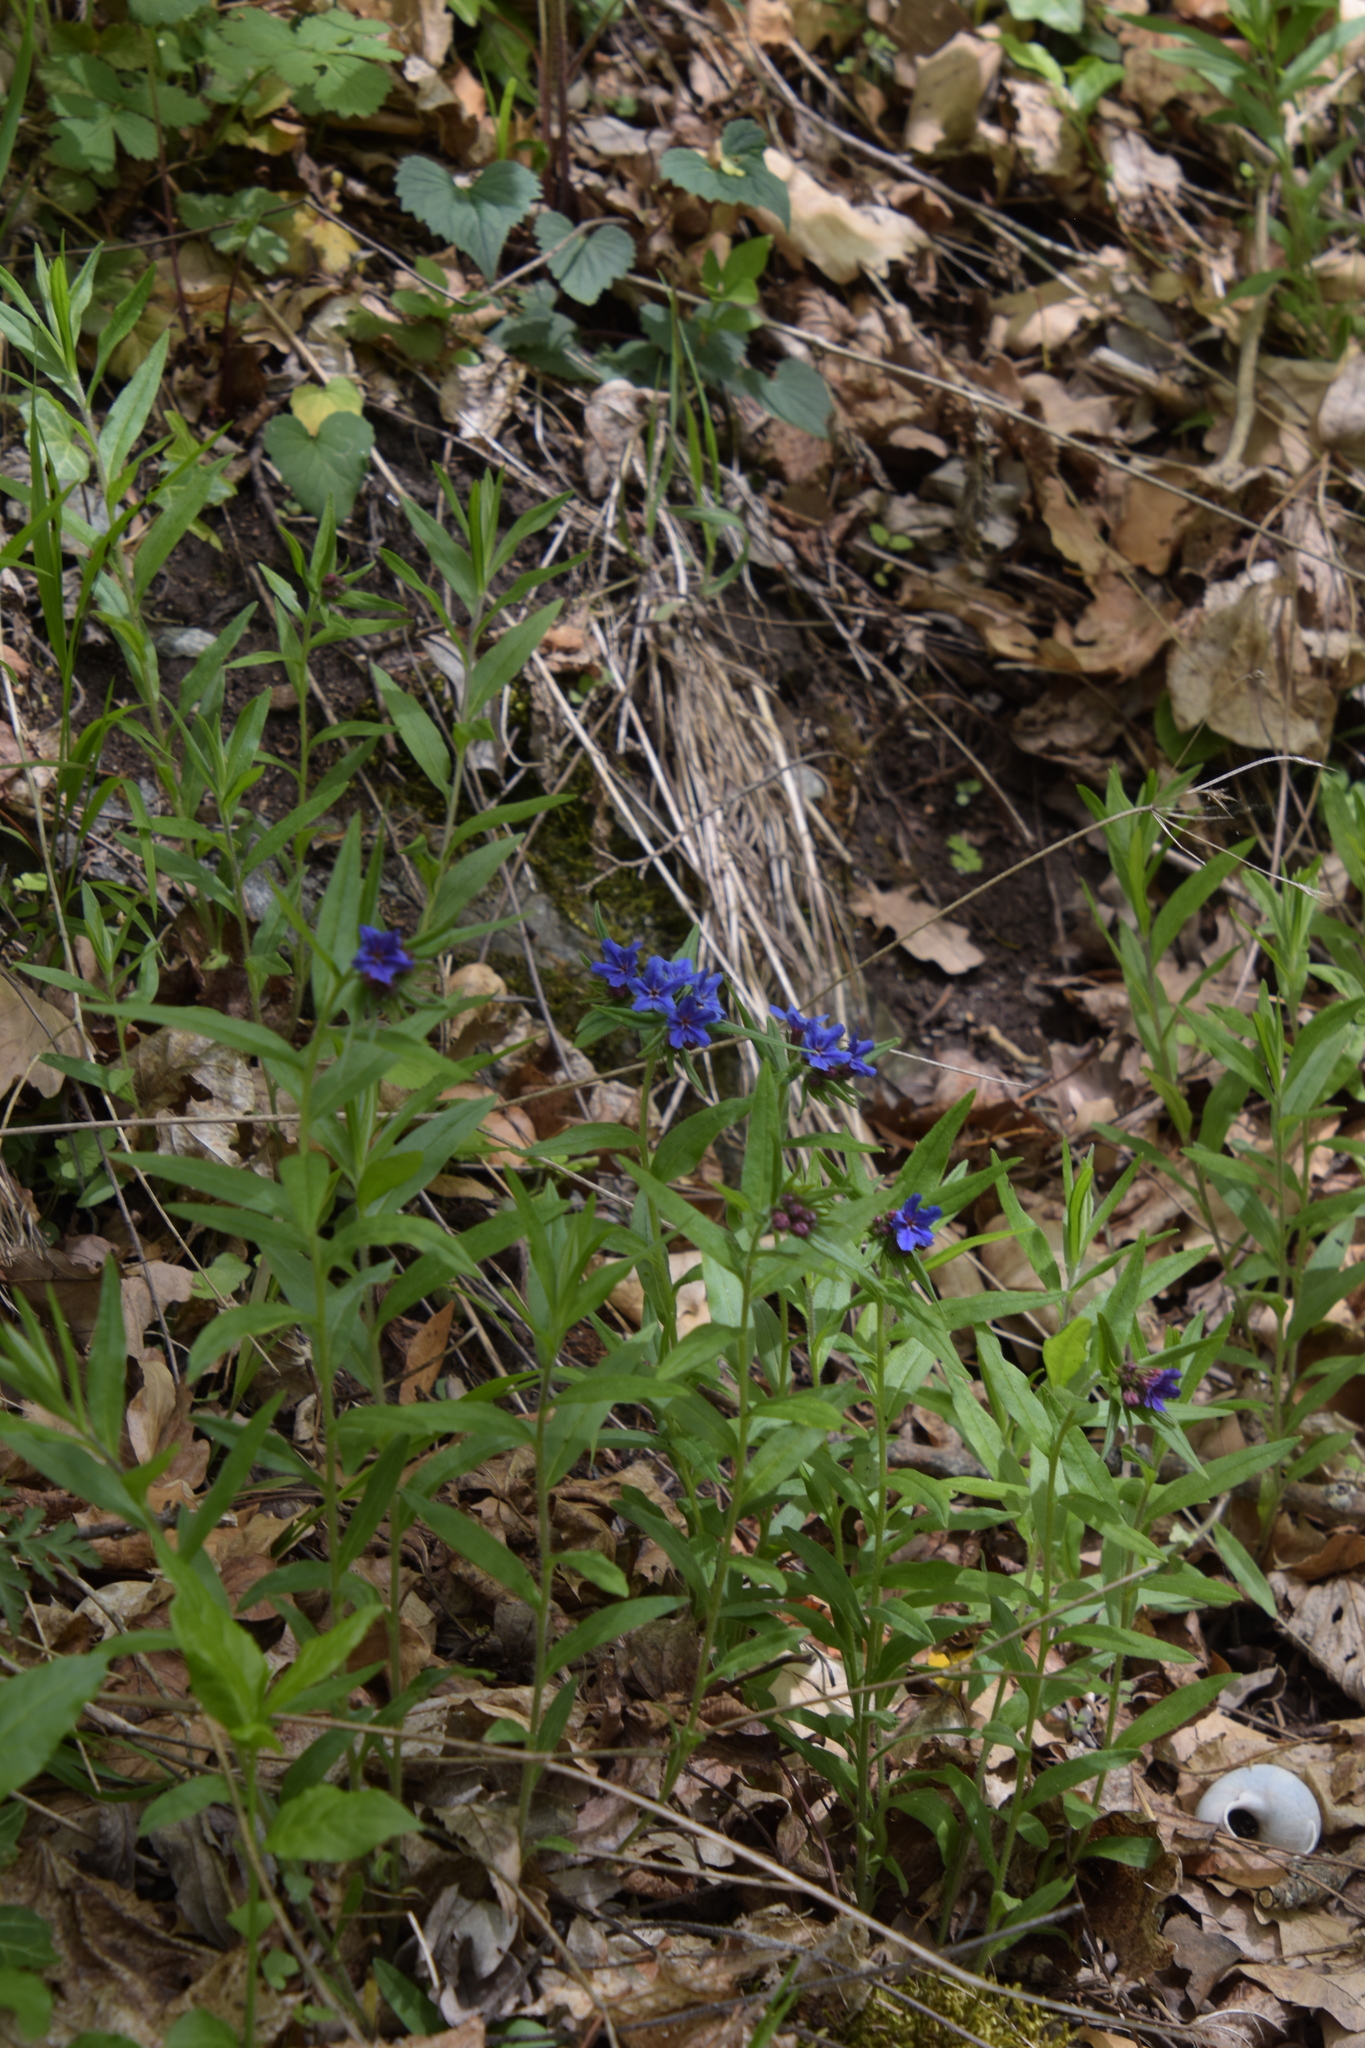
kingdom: Plantae
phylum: Tracheophyta
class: Magnoliopsida
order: Boraginales
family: Boraginaceae
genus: Aegonychon
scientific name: Aegonychon purpurocaeruleum
